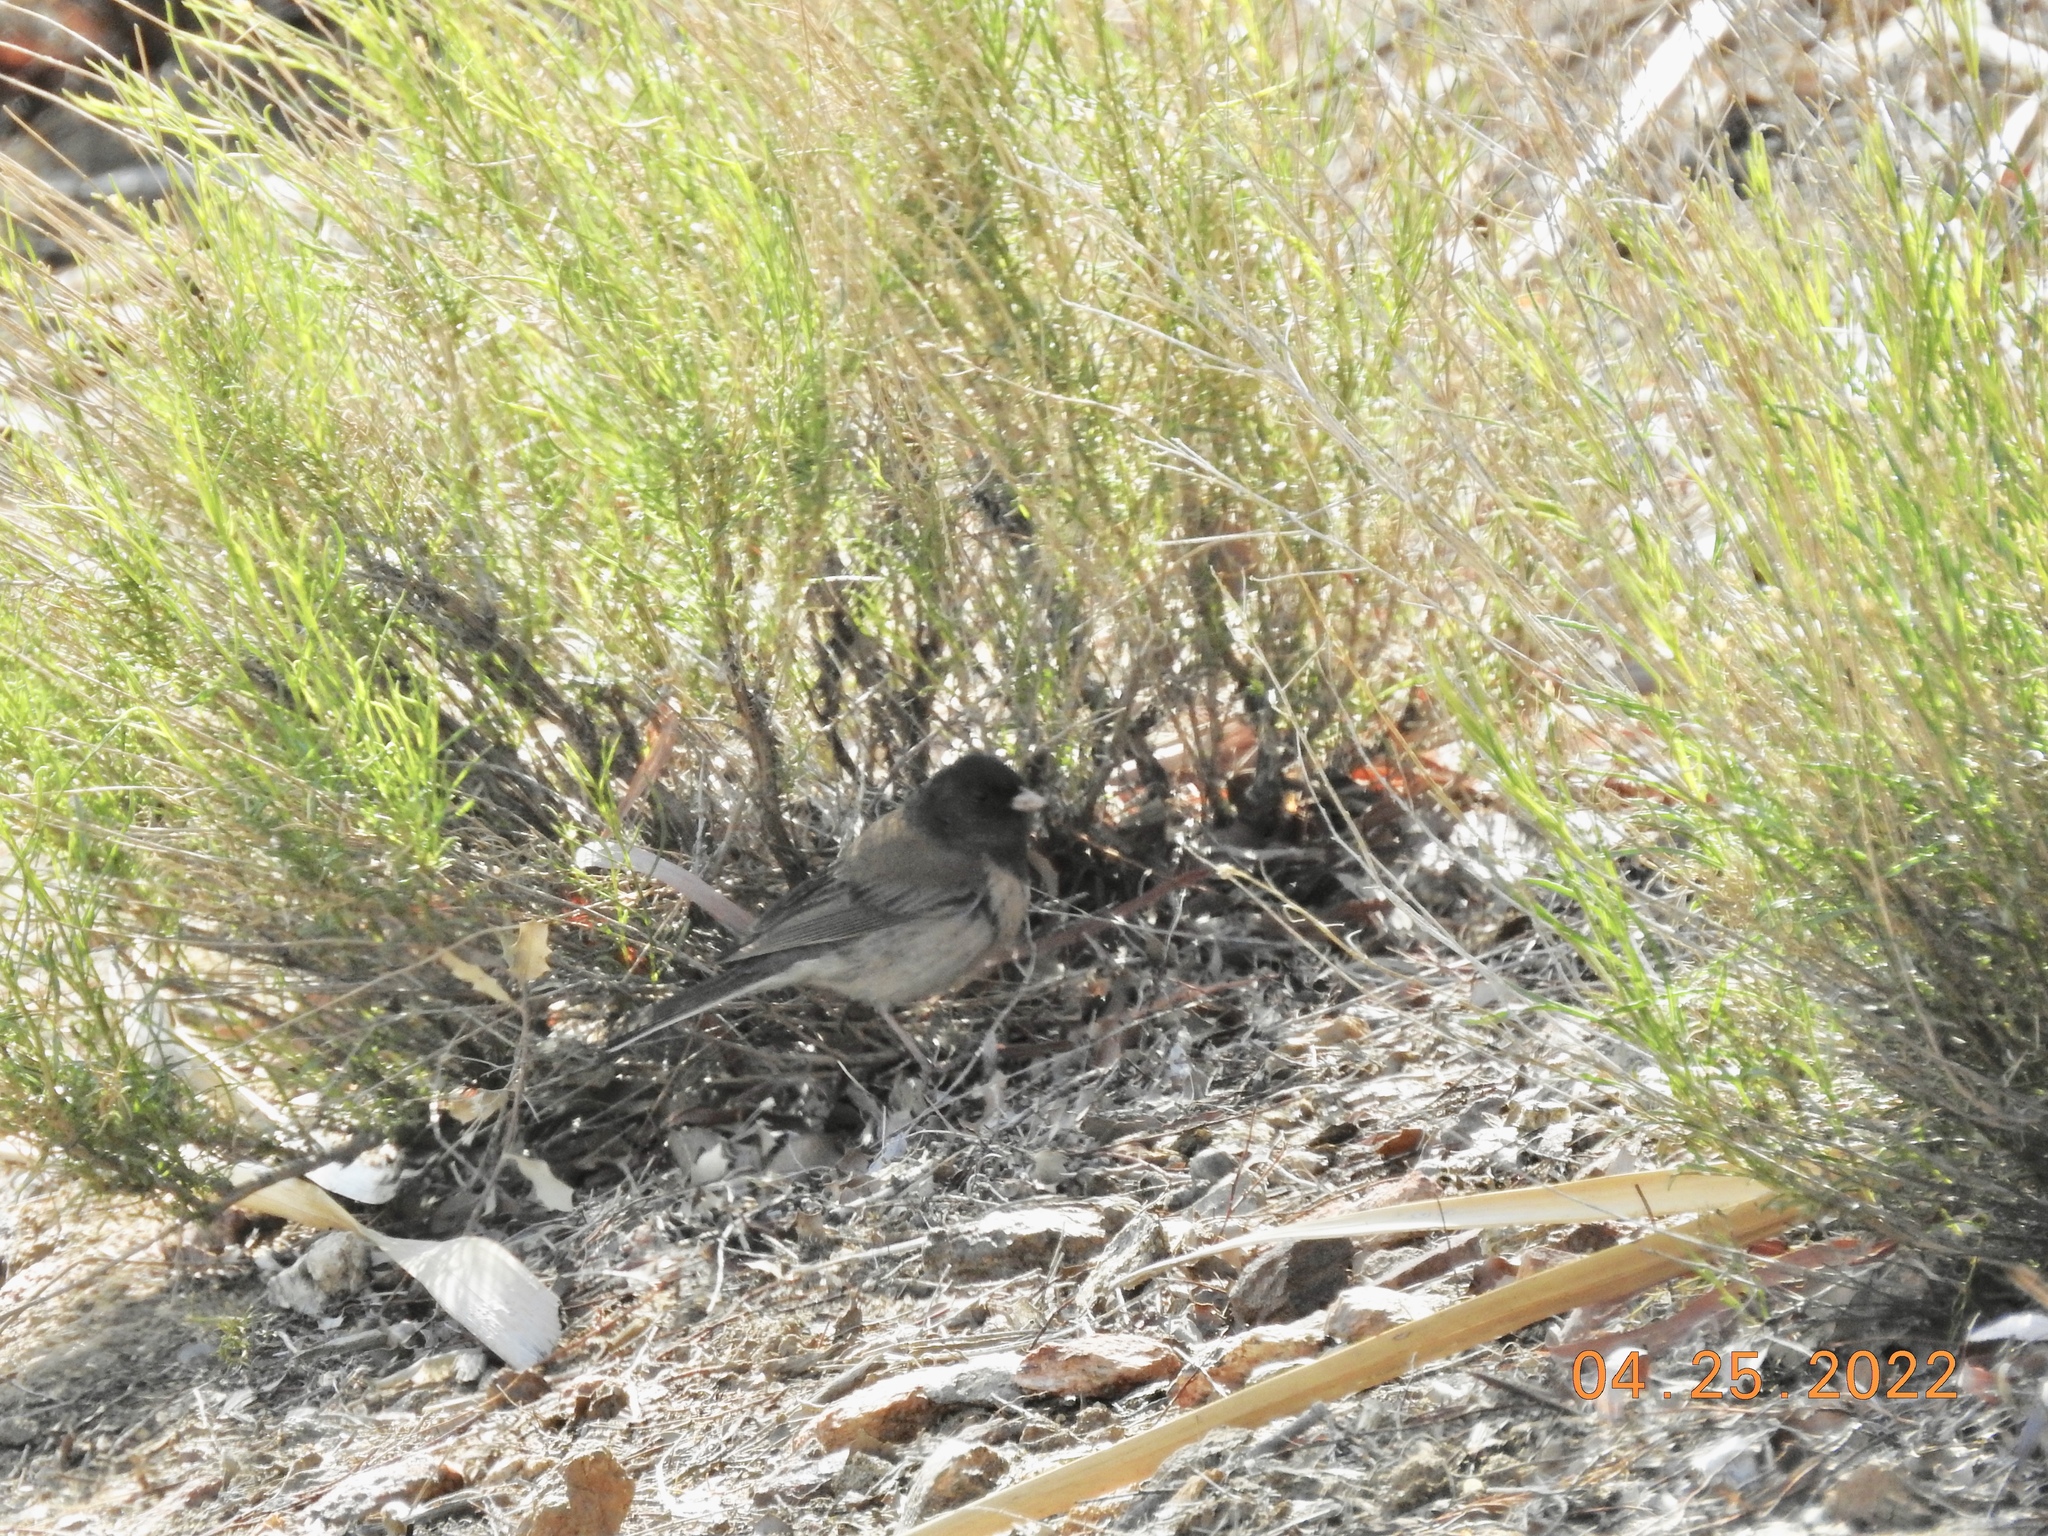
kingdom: Animalia
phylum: Chordata
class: Aves
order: Passeriformes
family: Passerellidae
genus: Junco
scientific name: Junco hyemalis
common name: Dark-eyed junco
